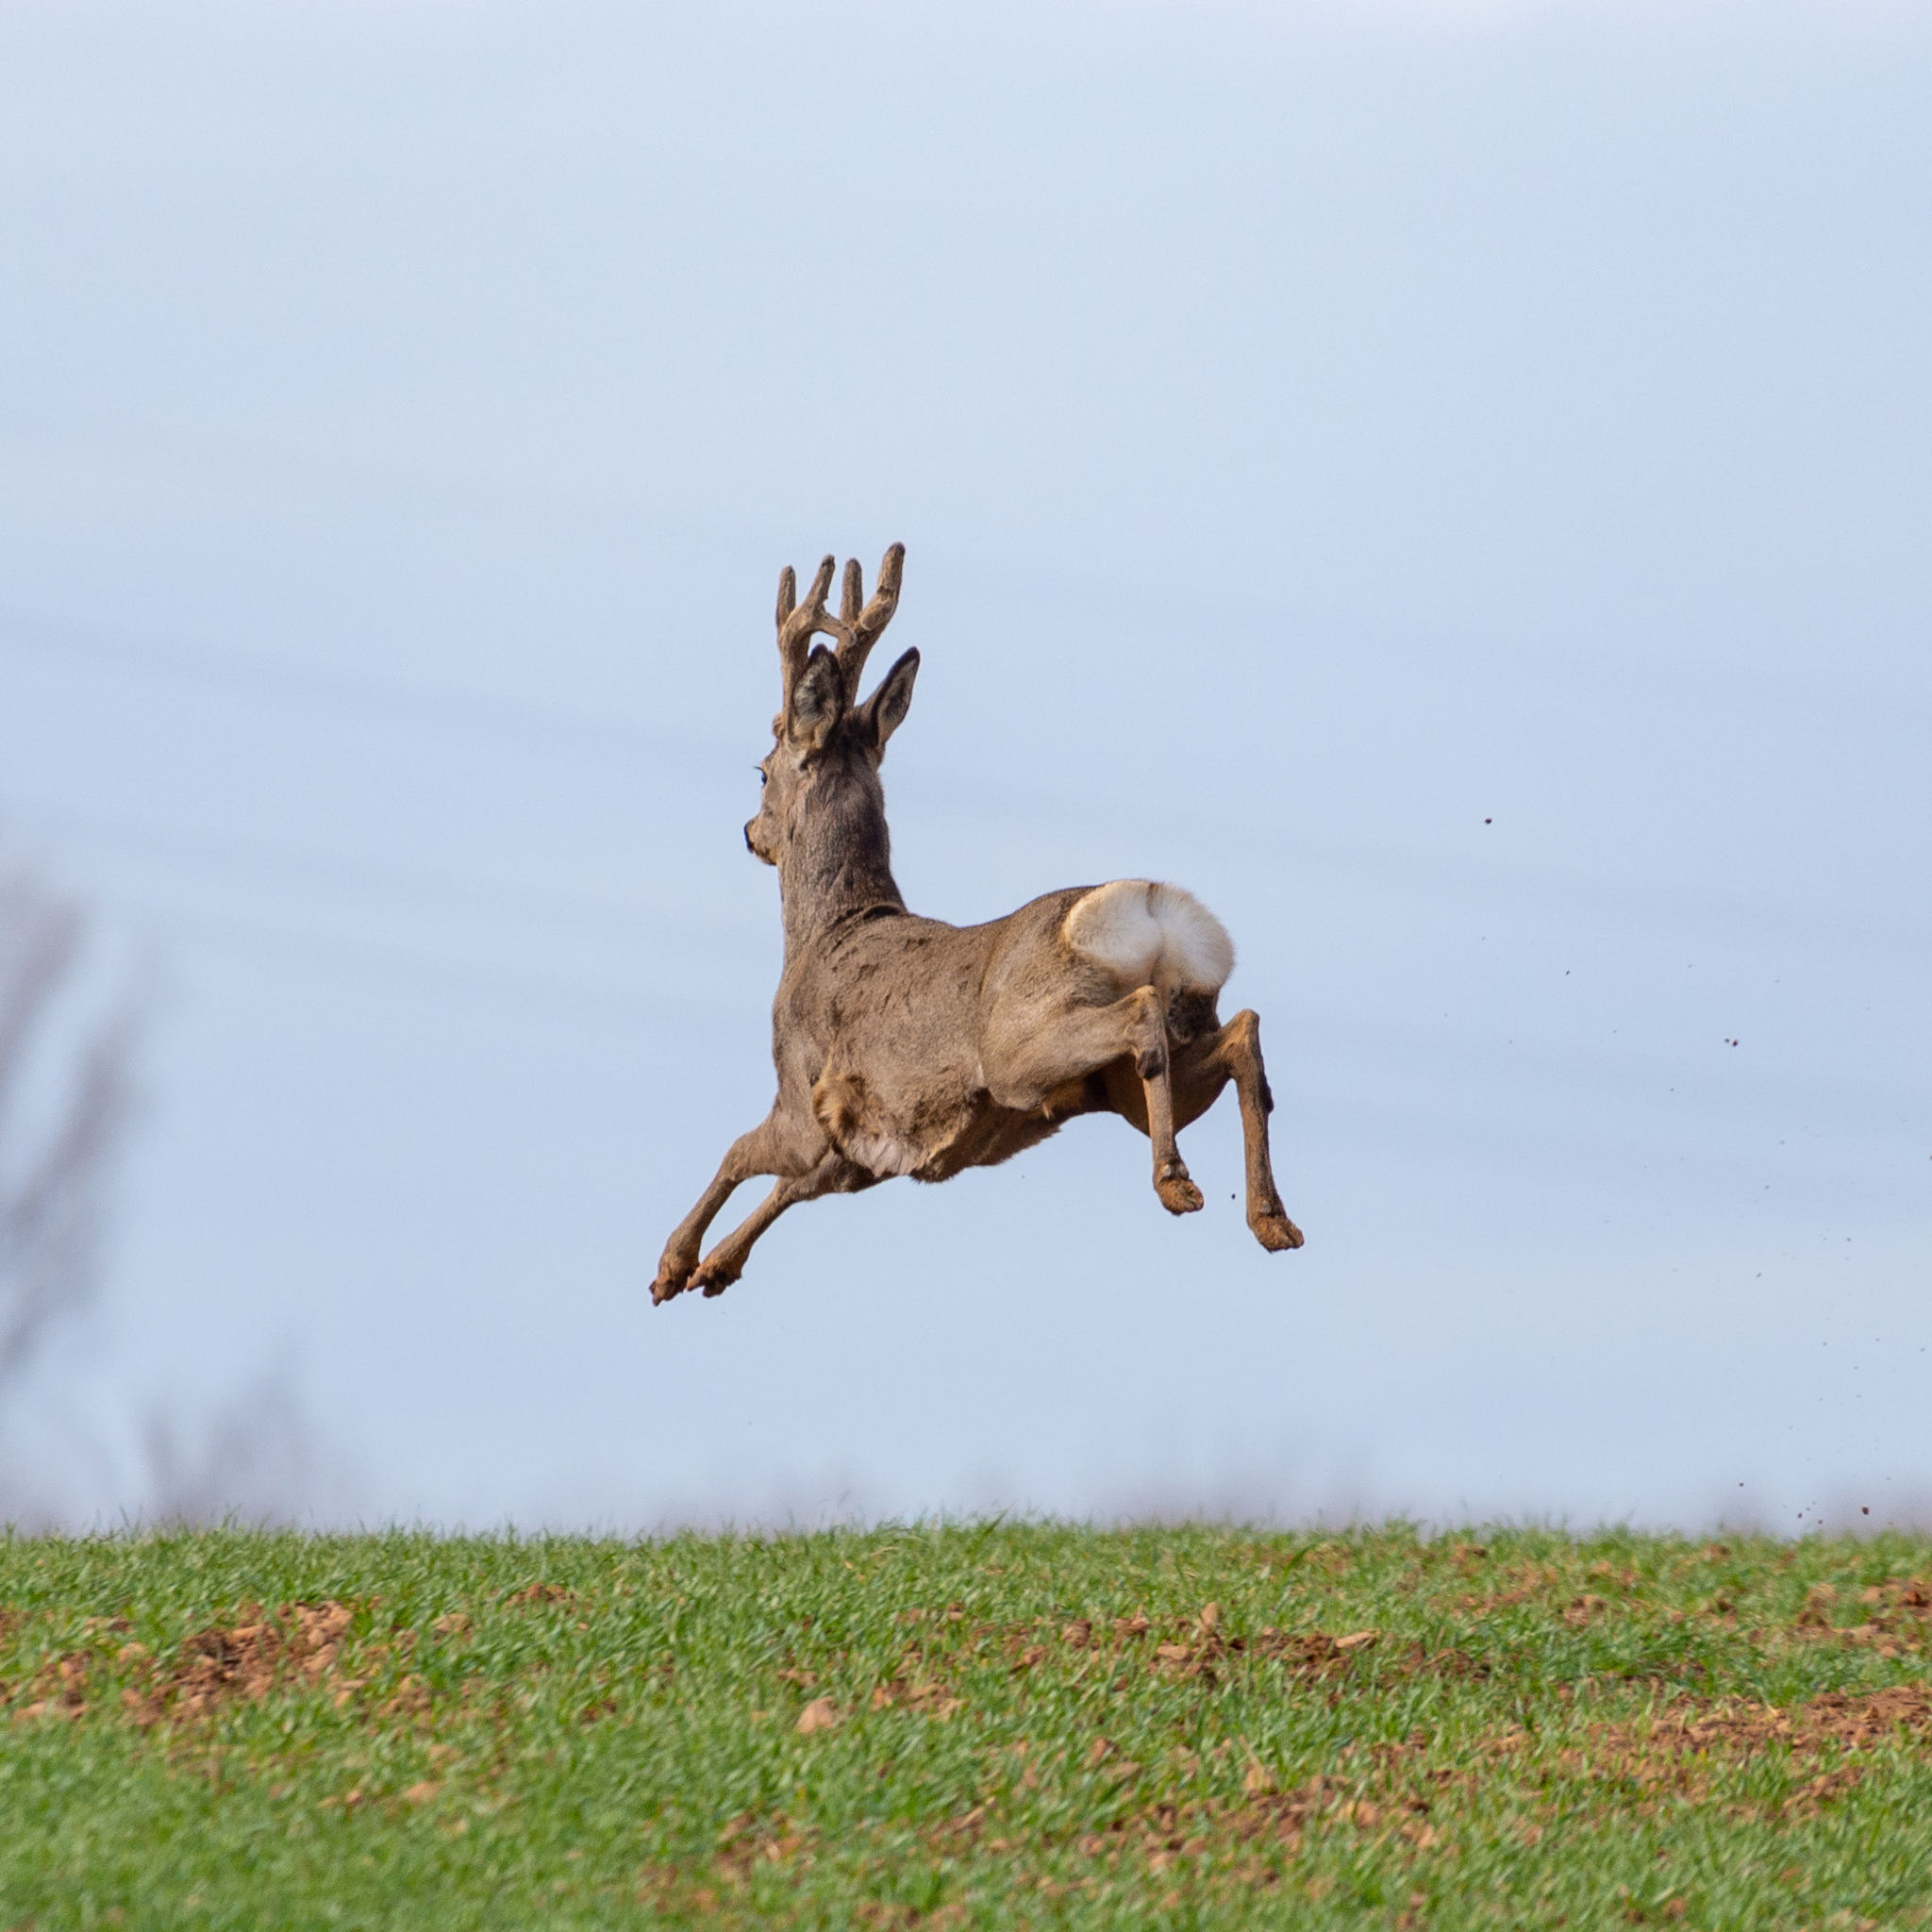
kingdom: Animalia
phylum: Chordata
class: Mammalia
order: Artiodactyla
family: Cervidae
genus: Capreolus
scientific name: Capreolus capreolus
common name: Western roe deer
